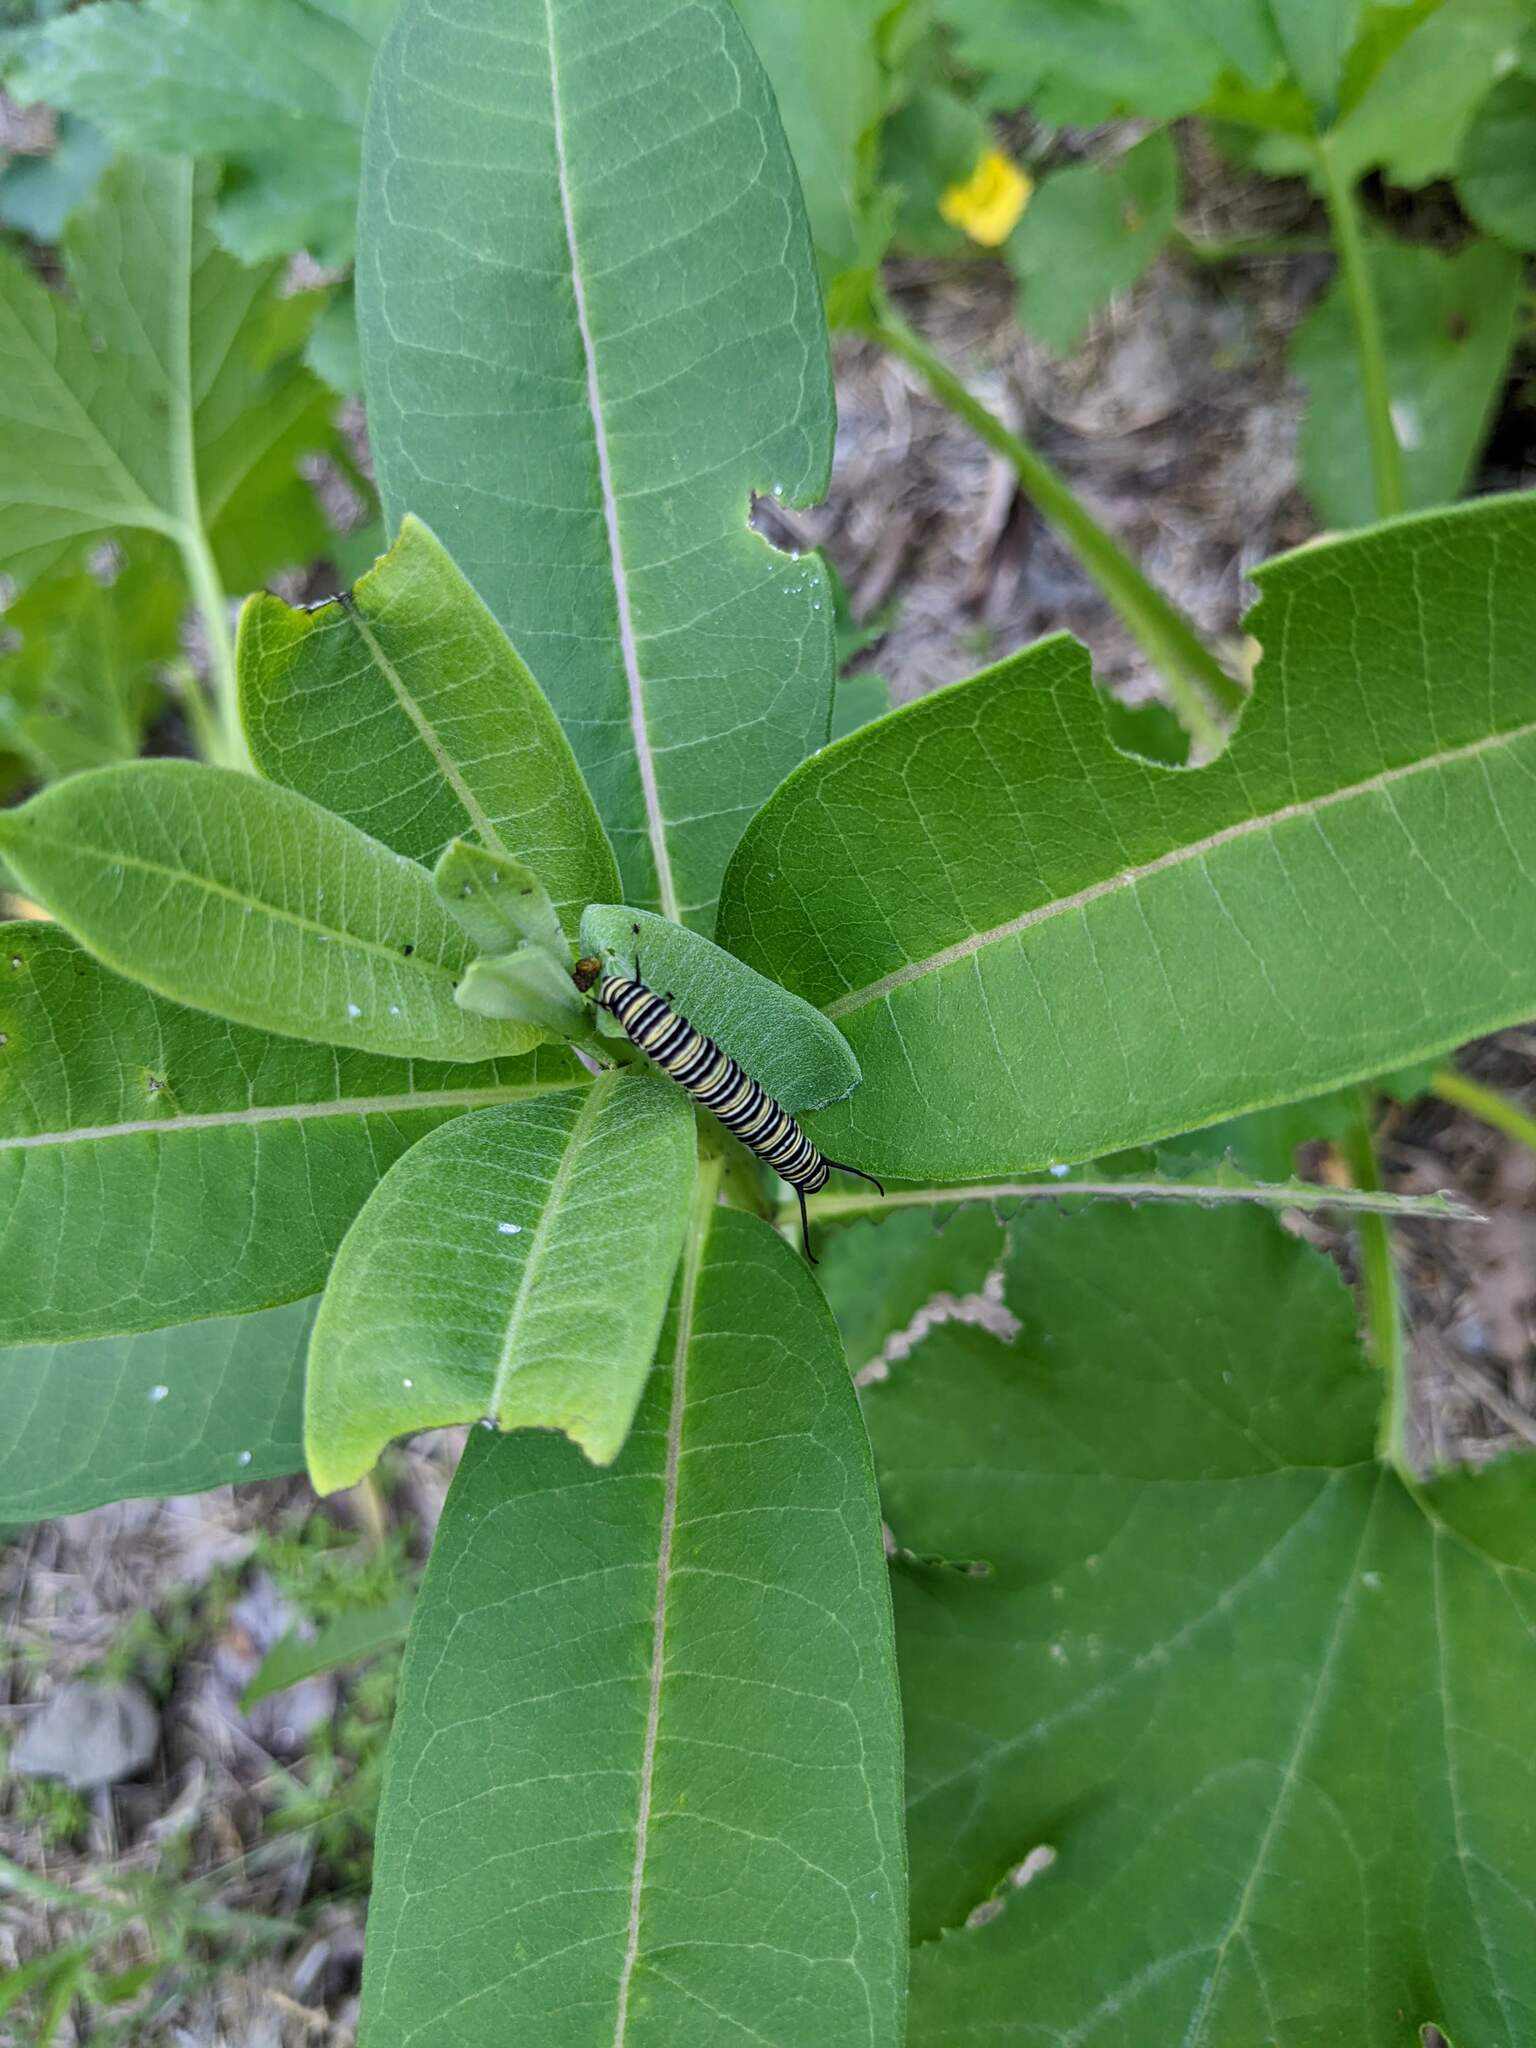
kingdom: Animalia
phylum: Arthropoda
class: Insecta
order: Lepidoptera
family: Nymphalidae
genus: Danaus
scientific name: Danaus plexippus
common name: Monarch
